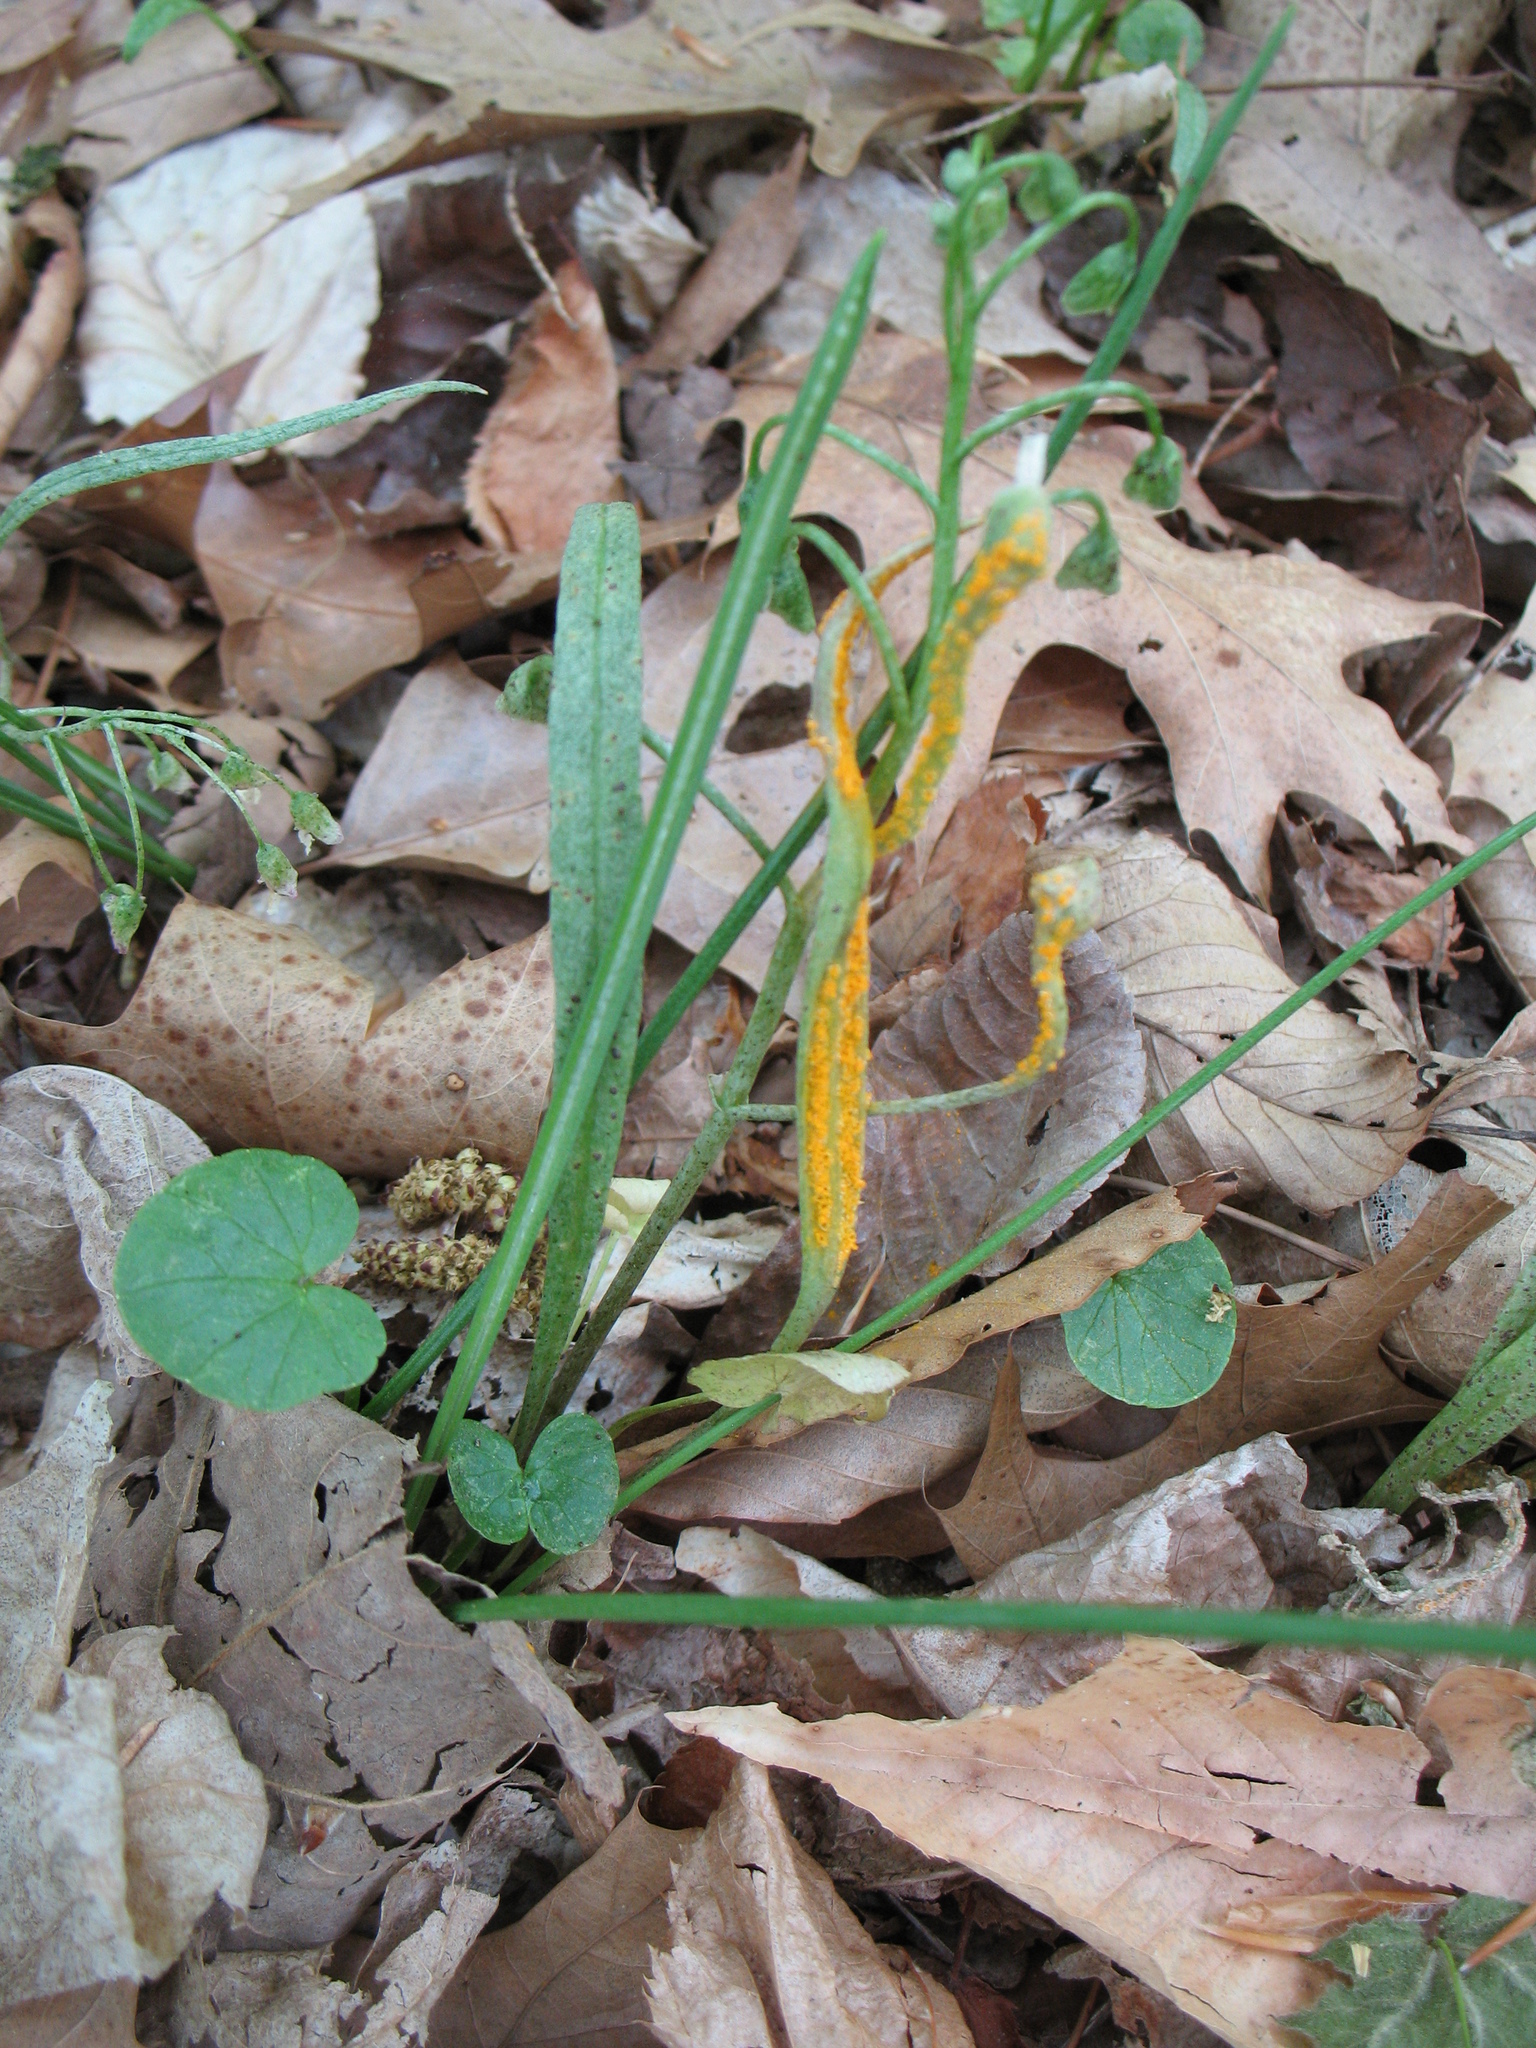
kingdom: Fungi
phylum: Basidiomycota
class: Pucciniomycetes
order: Pucciniales
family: Pucciniaceae
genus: Puccinia
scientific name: Puccinia mariae-wilsoniae
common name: Spring beauty rust
